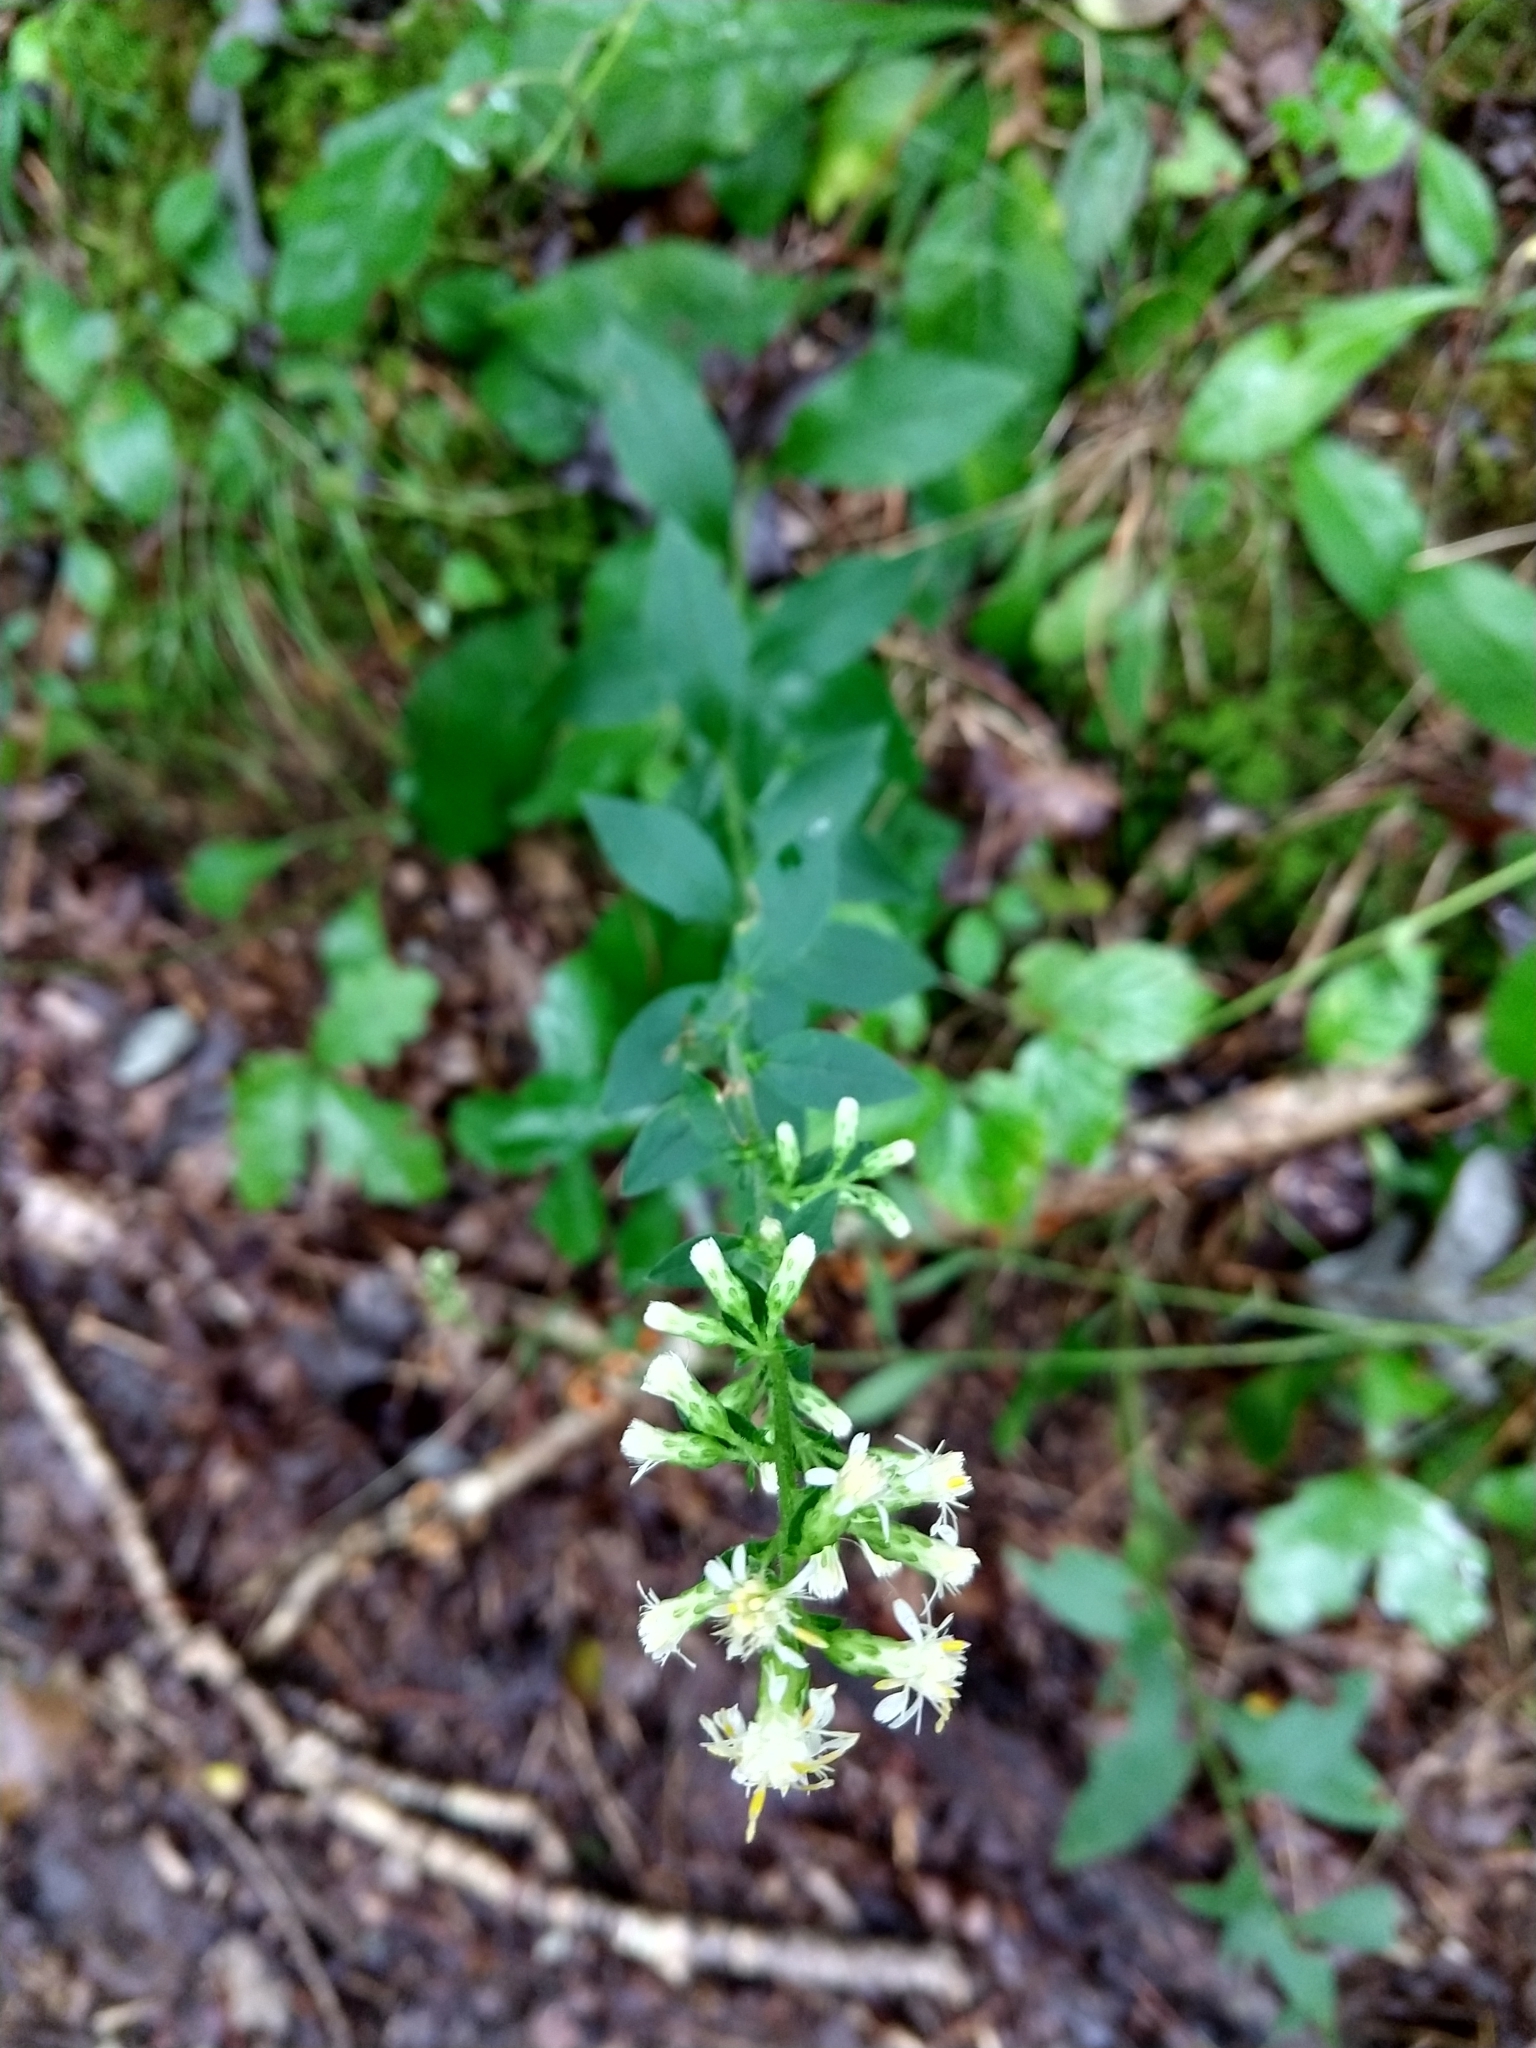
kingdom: Plantae
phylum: Tracheophyta
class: Magnoliopsida
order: Asterales
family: Asteraceae
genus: Solidago
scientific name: Solidago bicolor
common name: Silverrod
